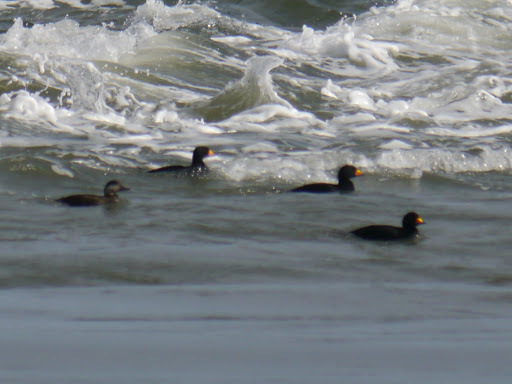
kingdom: Animalia
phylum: Chordata
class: Aves
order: Anseriformes
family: Anatidae
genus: Melanitta
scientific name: Melanitta americana
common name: Black scoter
